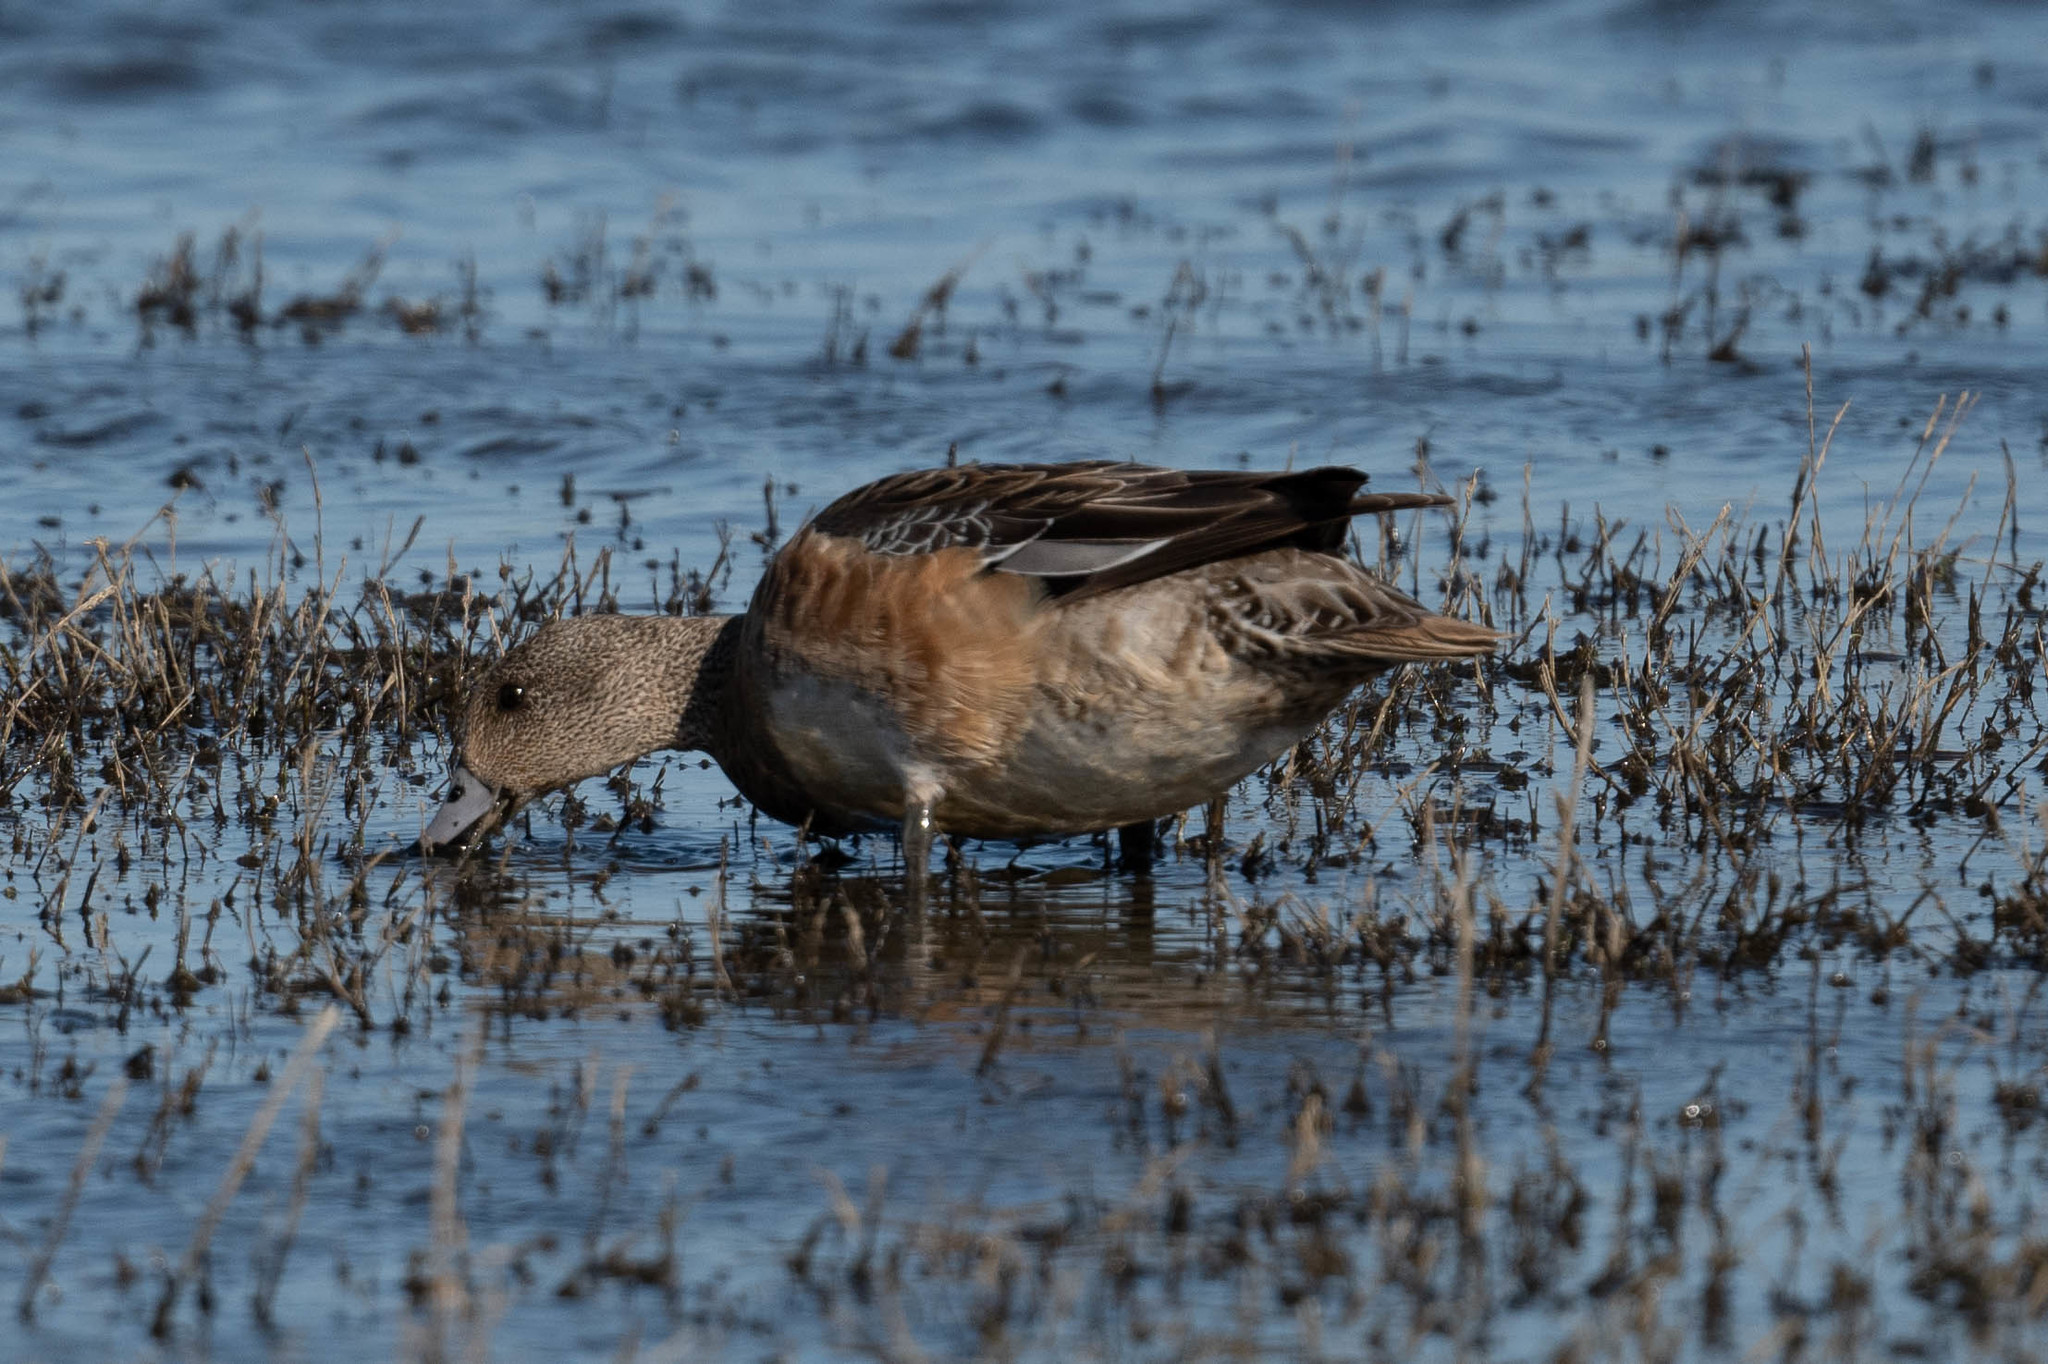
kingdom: Animalia
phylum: Chordata
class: Aves
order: Anseriformes
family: Anatidae
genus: Mareca
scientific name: Mareca americana
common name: American wigeon
